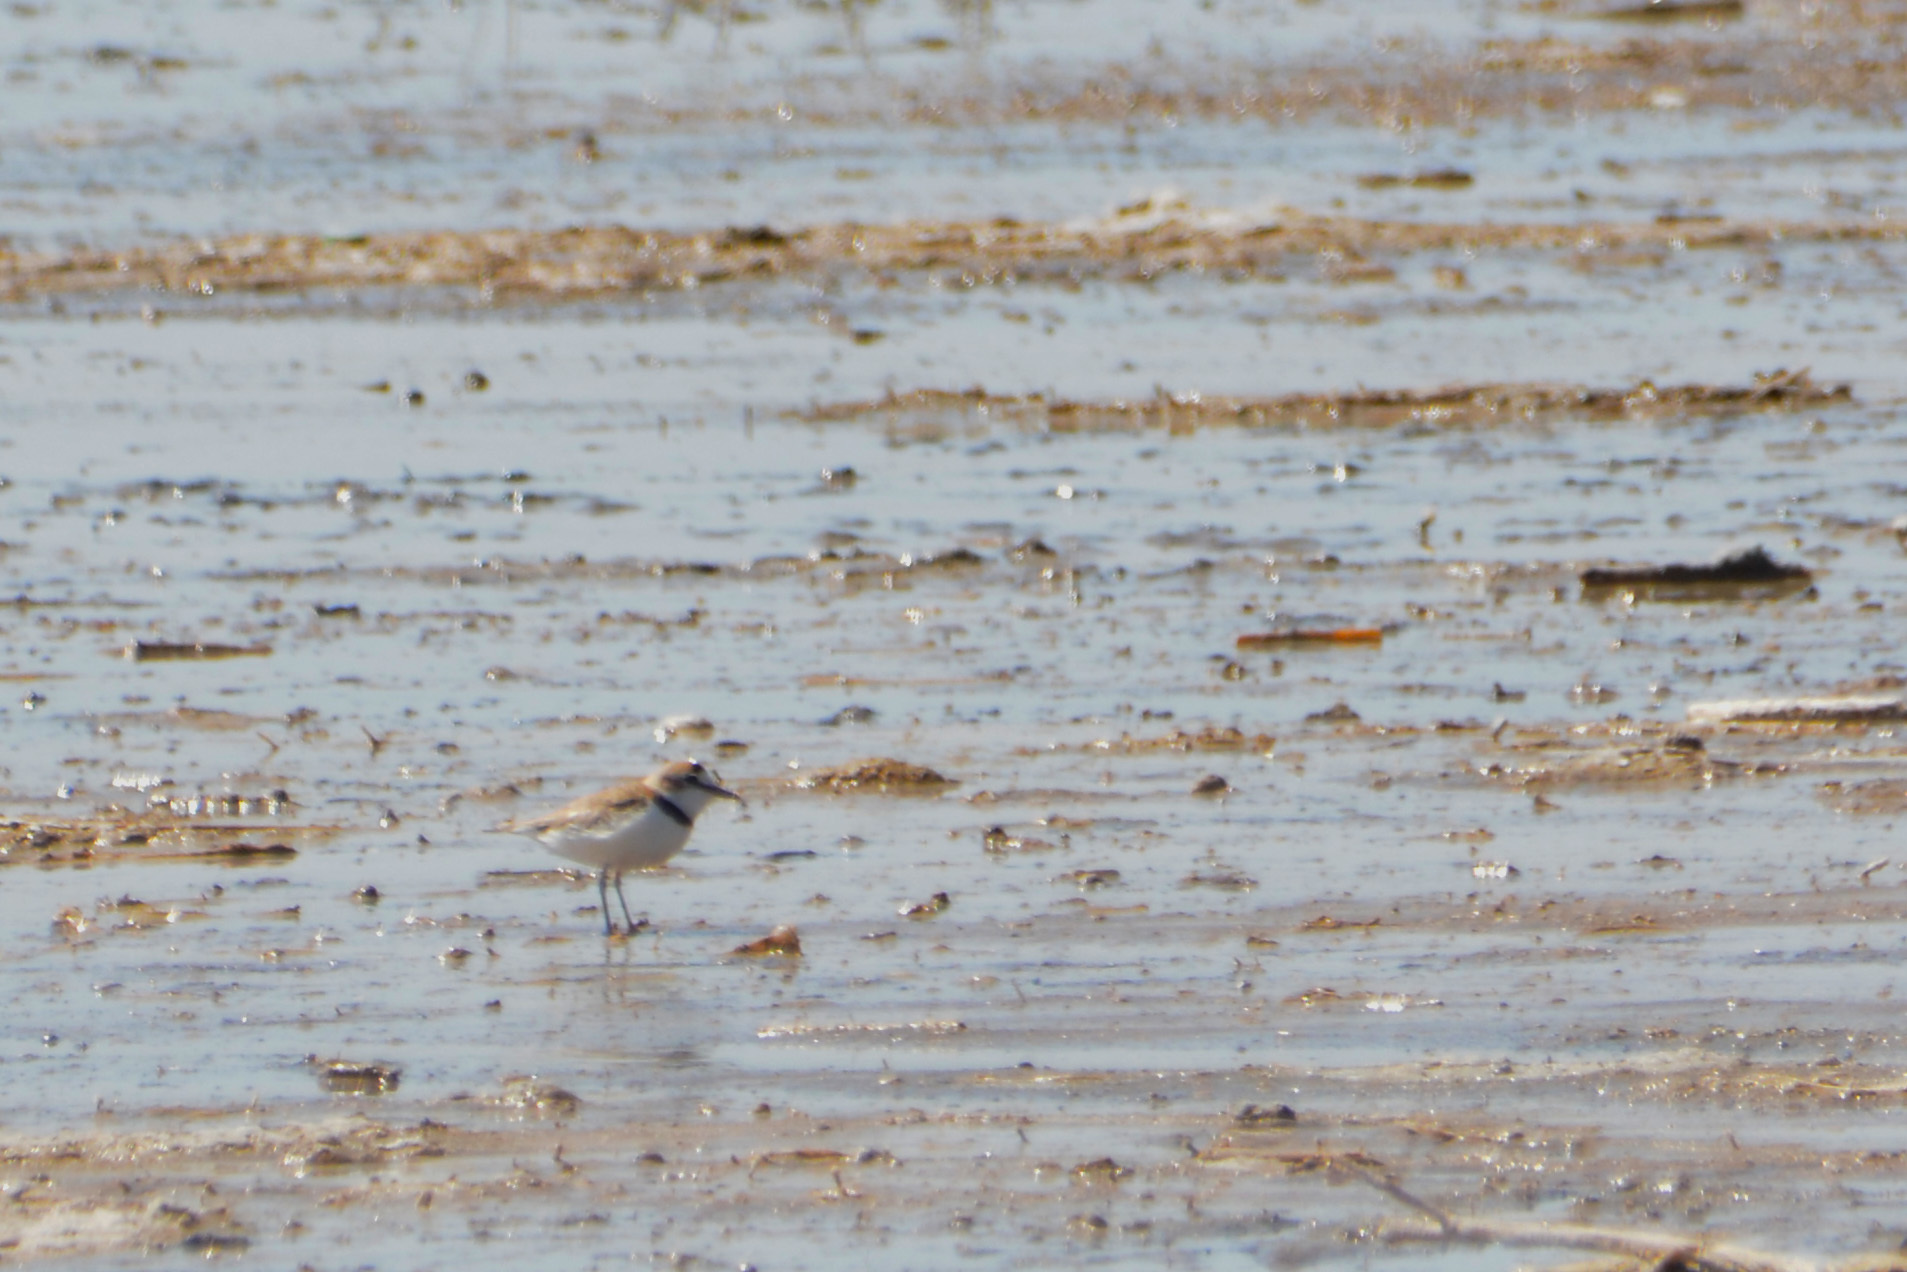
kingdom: Animalia
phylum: Chordata
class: Aves
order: Charadriiformes
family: Charadriidae
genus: Anarhynchus
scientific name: Anarhynchus
